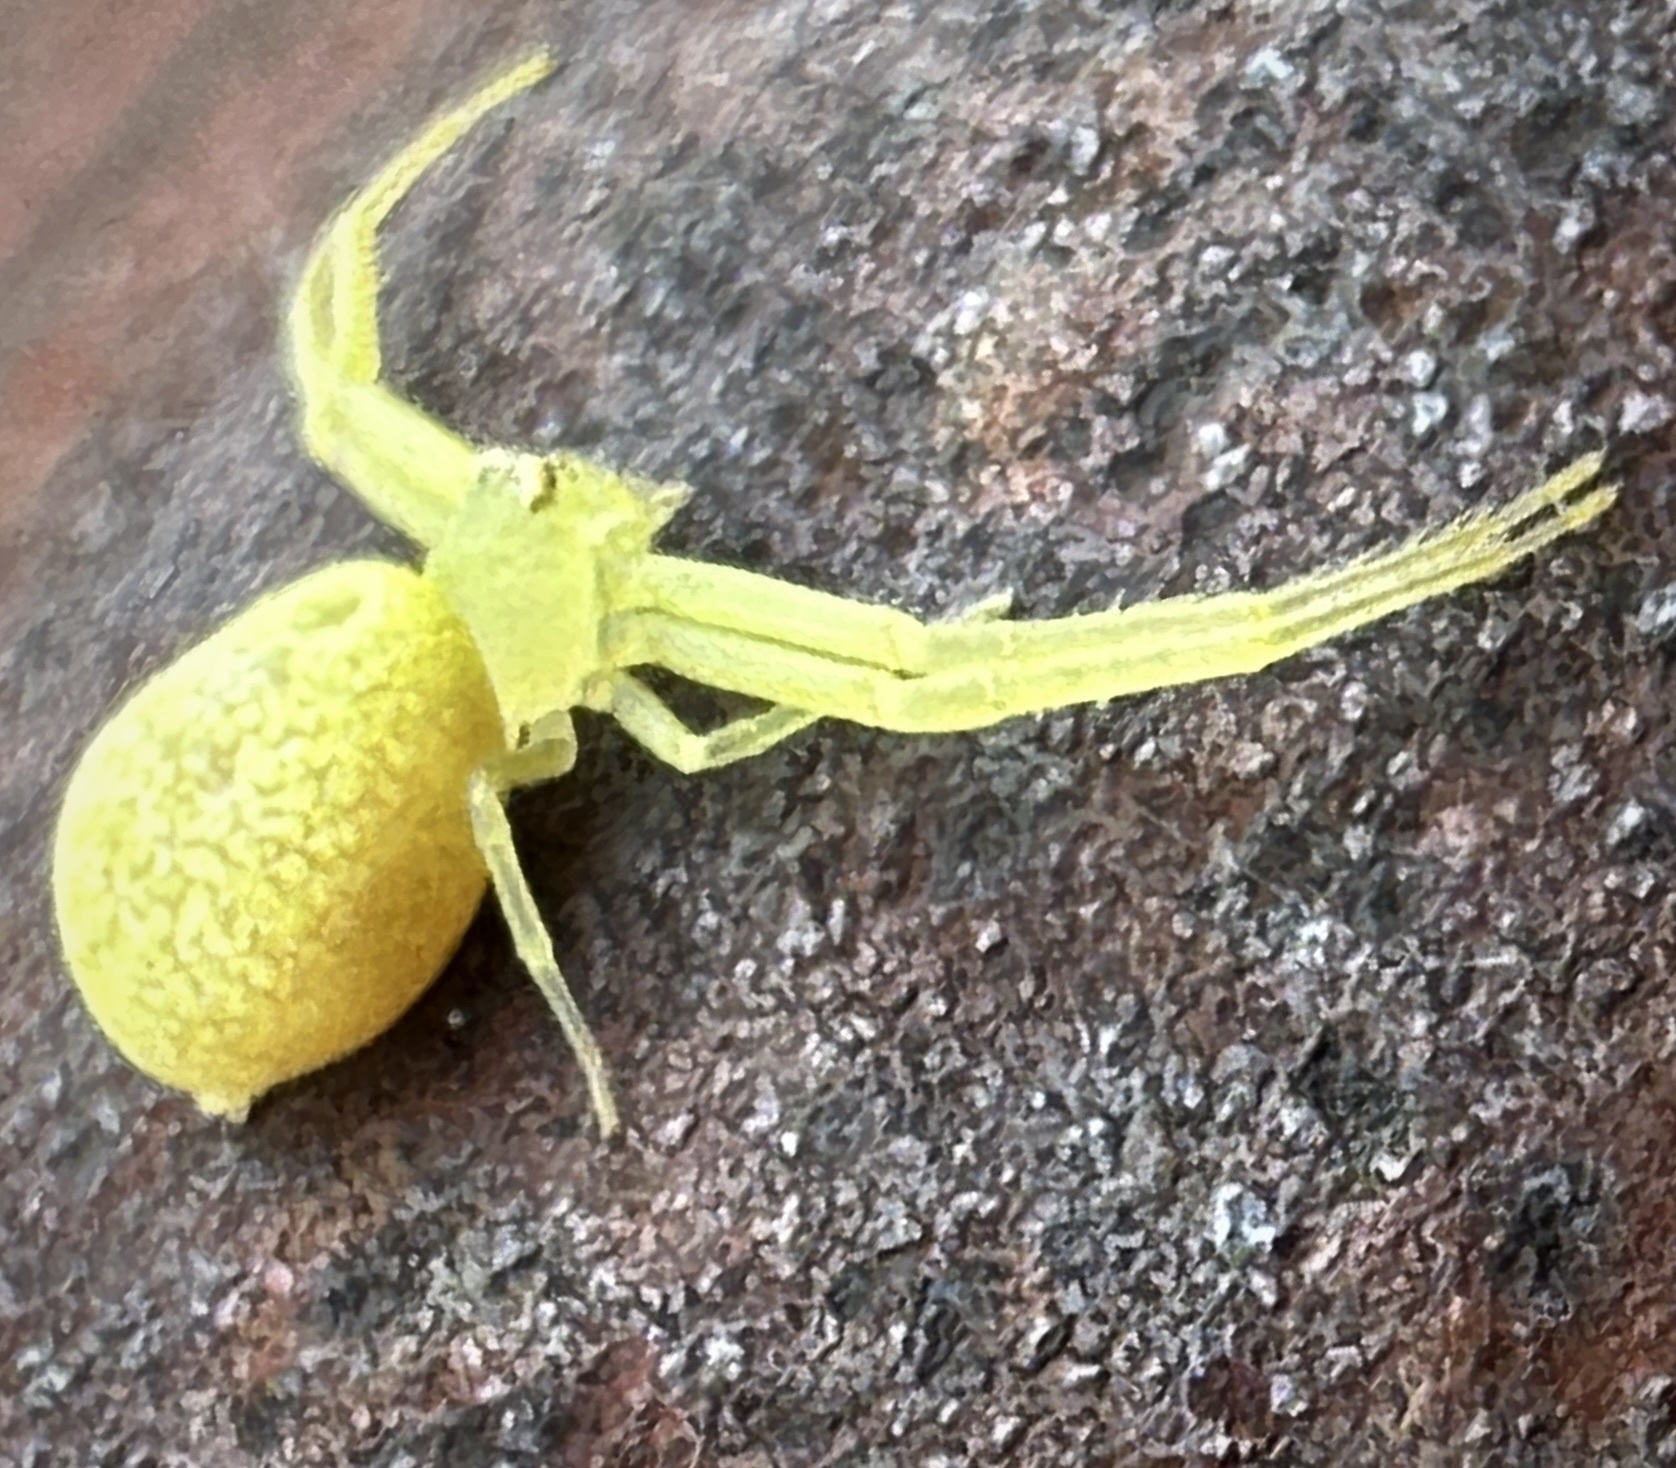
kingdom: Animalia
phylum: Arthropoda
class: Arachnida
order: Araneae
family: Thomisidae
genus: Misumessus
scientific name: Misumessus oblongus
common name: American green crab spider
